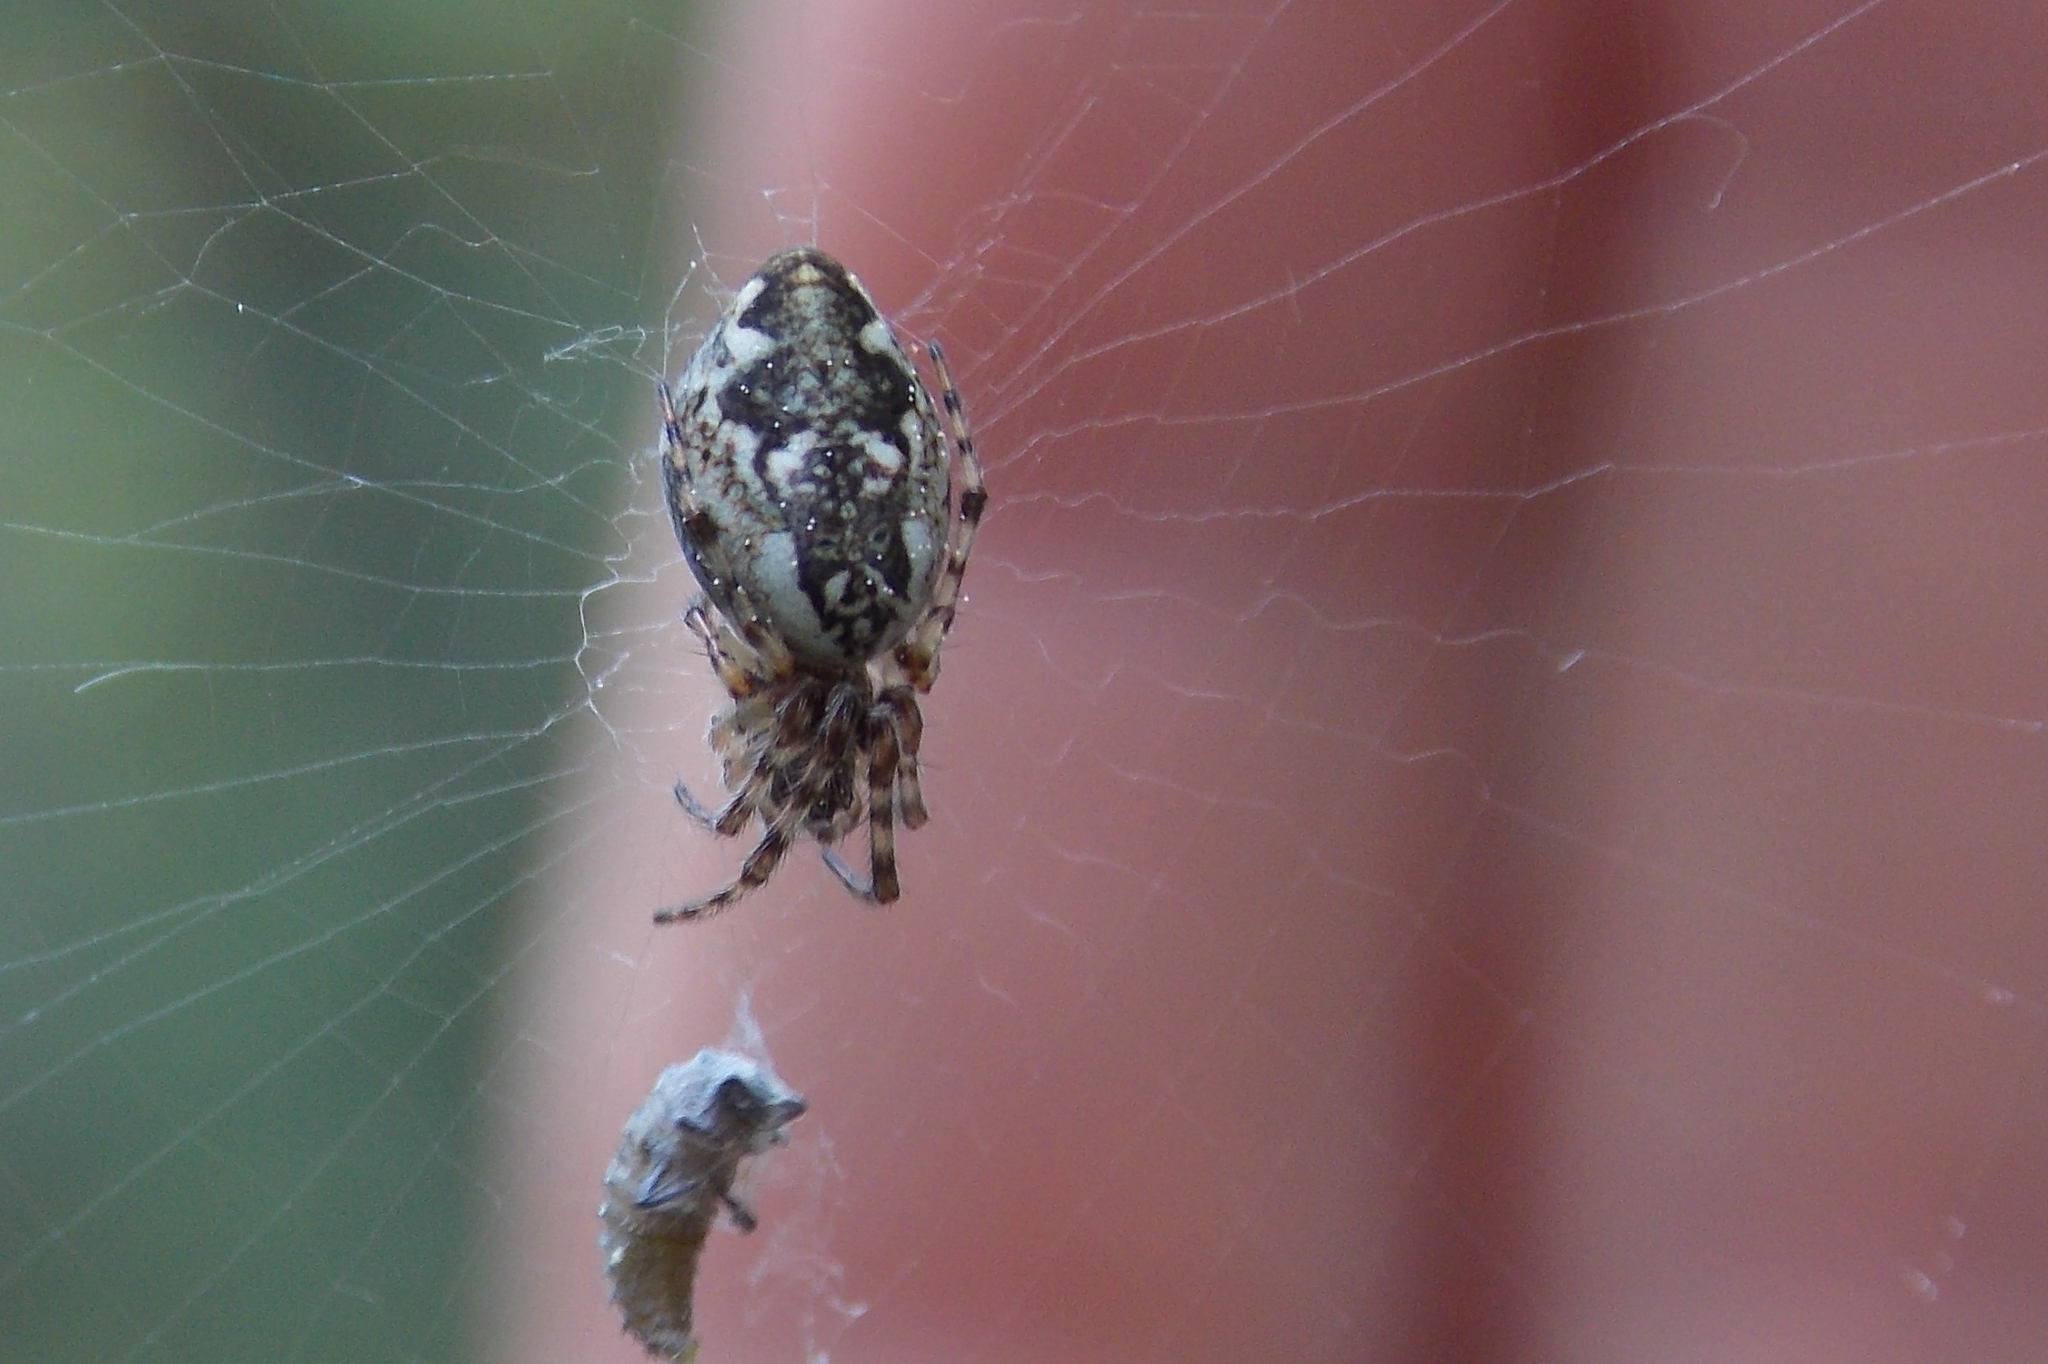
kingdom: Animalia
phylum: Arthropoda
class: Arachnida
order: Araneae
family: Araneidae
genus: Cyclosa
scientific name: Cyclosa conica
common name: Conical trashline orbweaver
